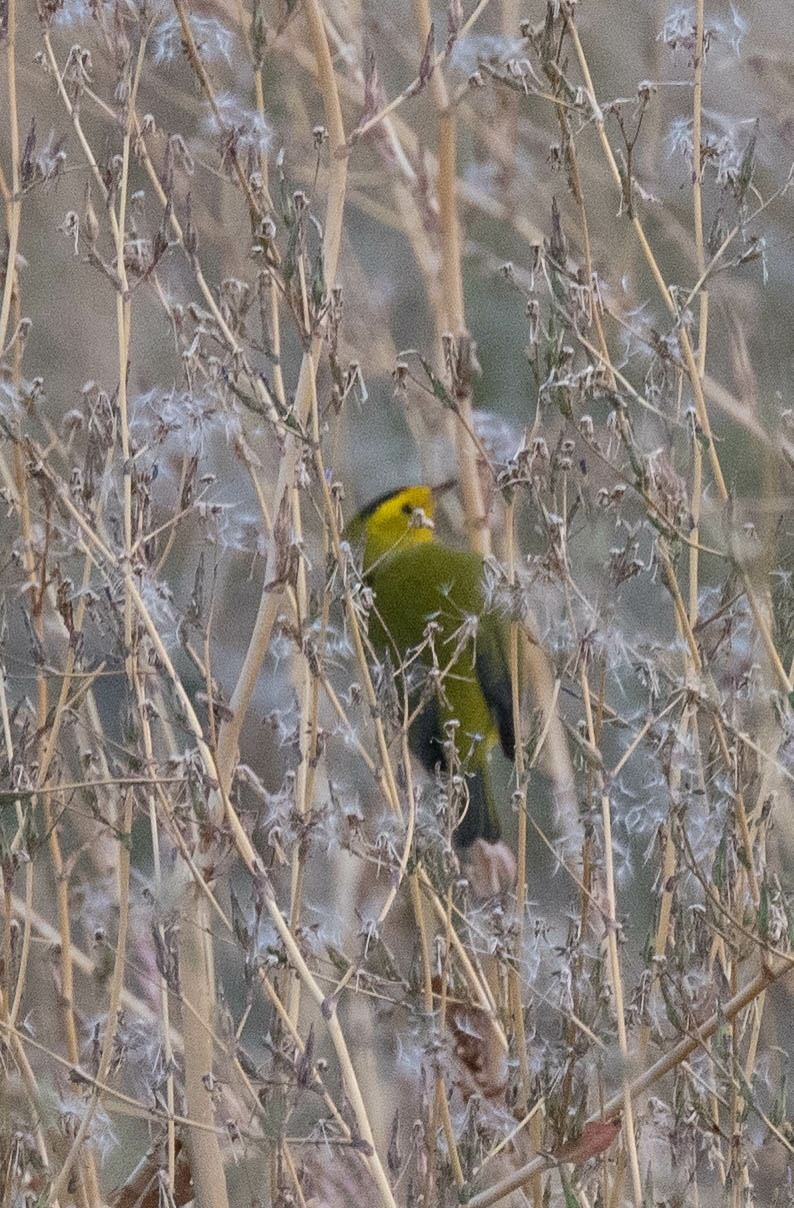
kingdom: Animalia
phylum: Chordata
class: Aves
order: Passeriformes
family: Parulidae
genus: Cardellina
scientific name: Cardellina pusilla
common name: Wilson's warbler
